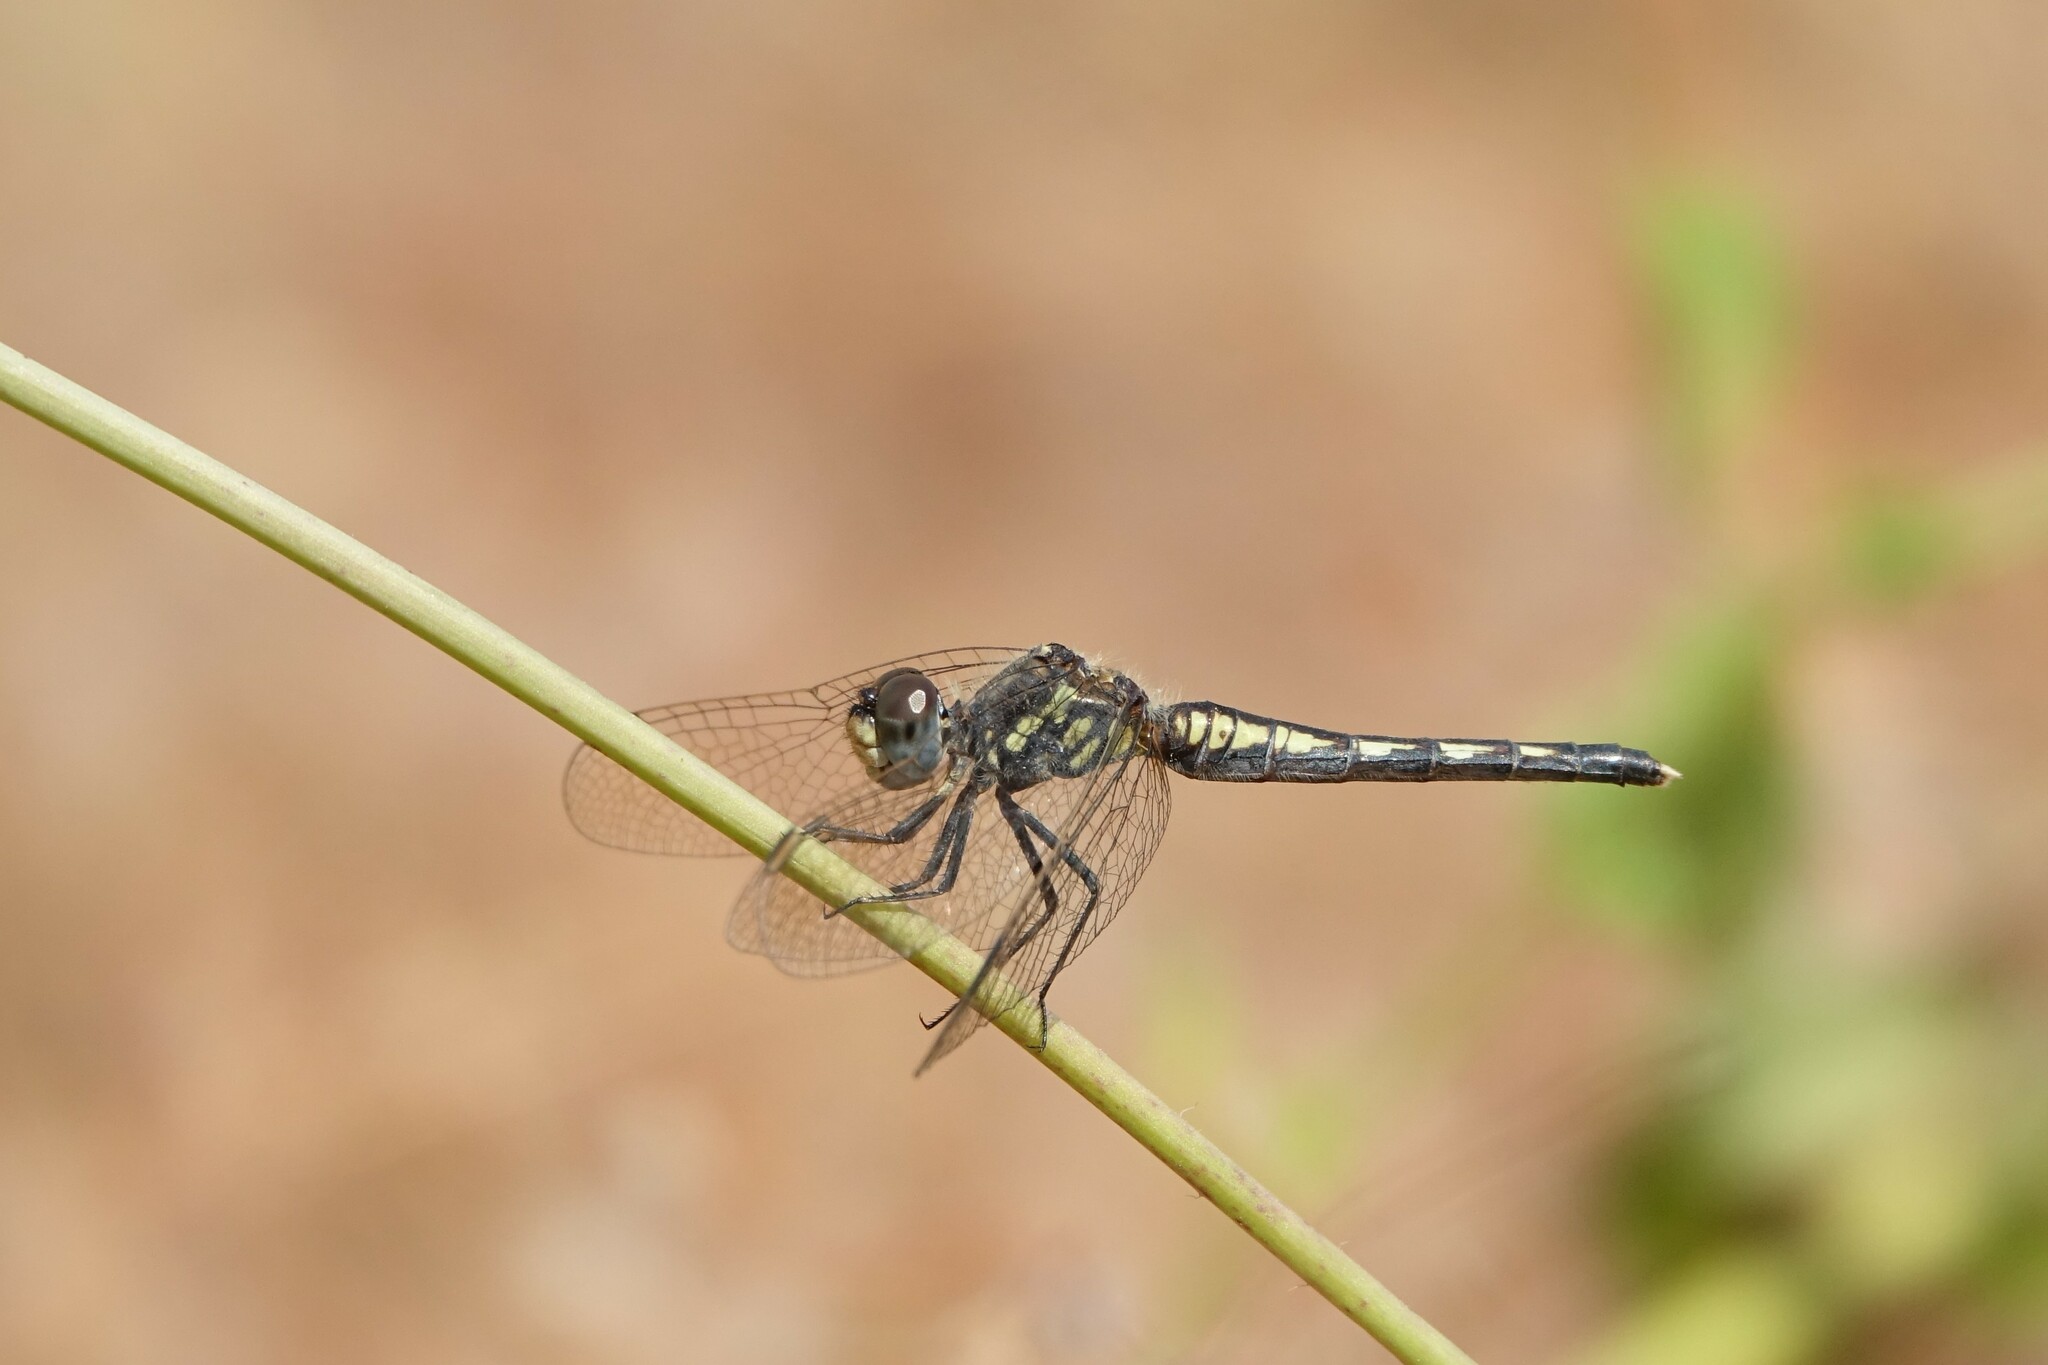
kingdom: Animalia
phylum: Arthropoda
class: Insecta
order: Odonata
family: Libellulidae
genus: Diplacodes
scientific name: Diplacodes lefebvrii
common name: Black percher
